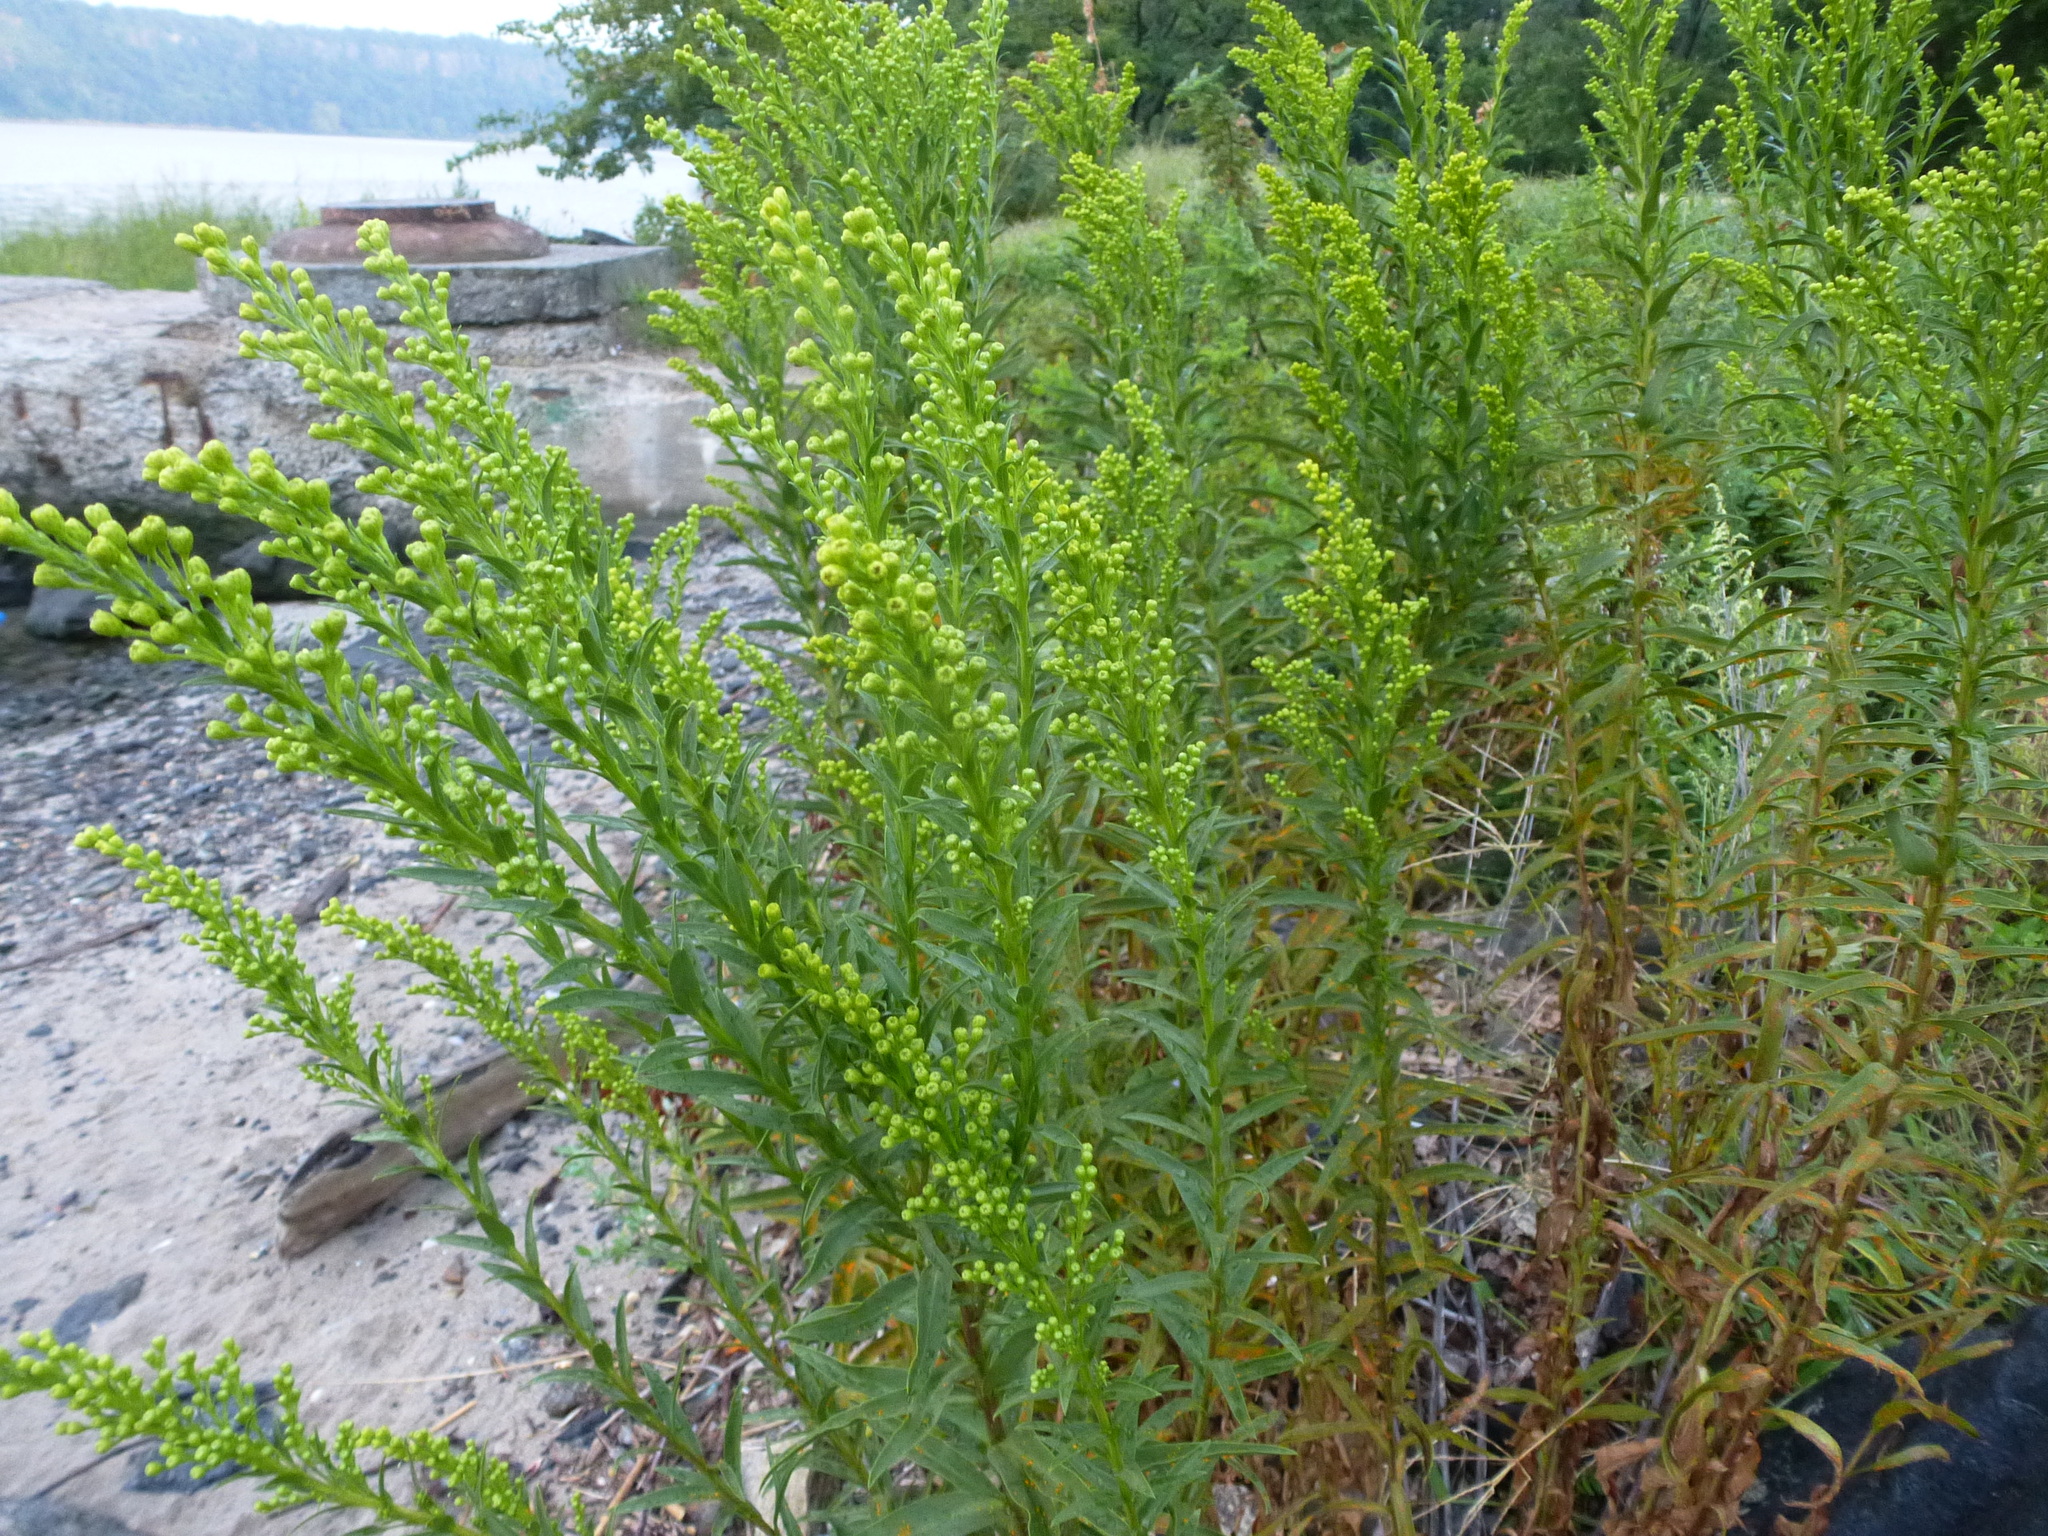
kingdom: Plantae
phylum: Tracheophyta
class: Magnoliopsida
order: Asterales
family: Asteraceae
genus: Solidago
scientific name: Solidago sempervirens
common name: Salt-marsh goldenrod
